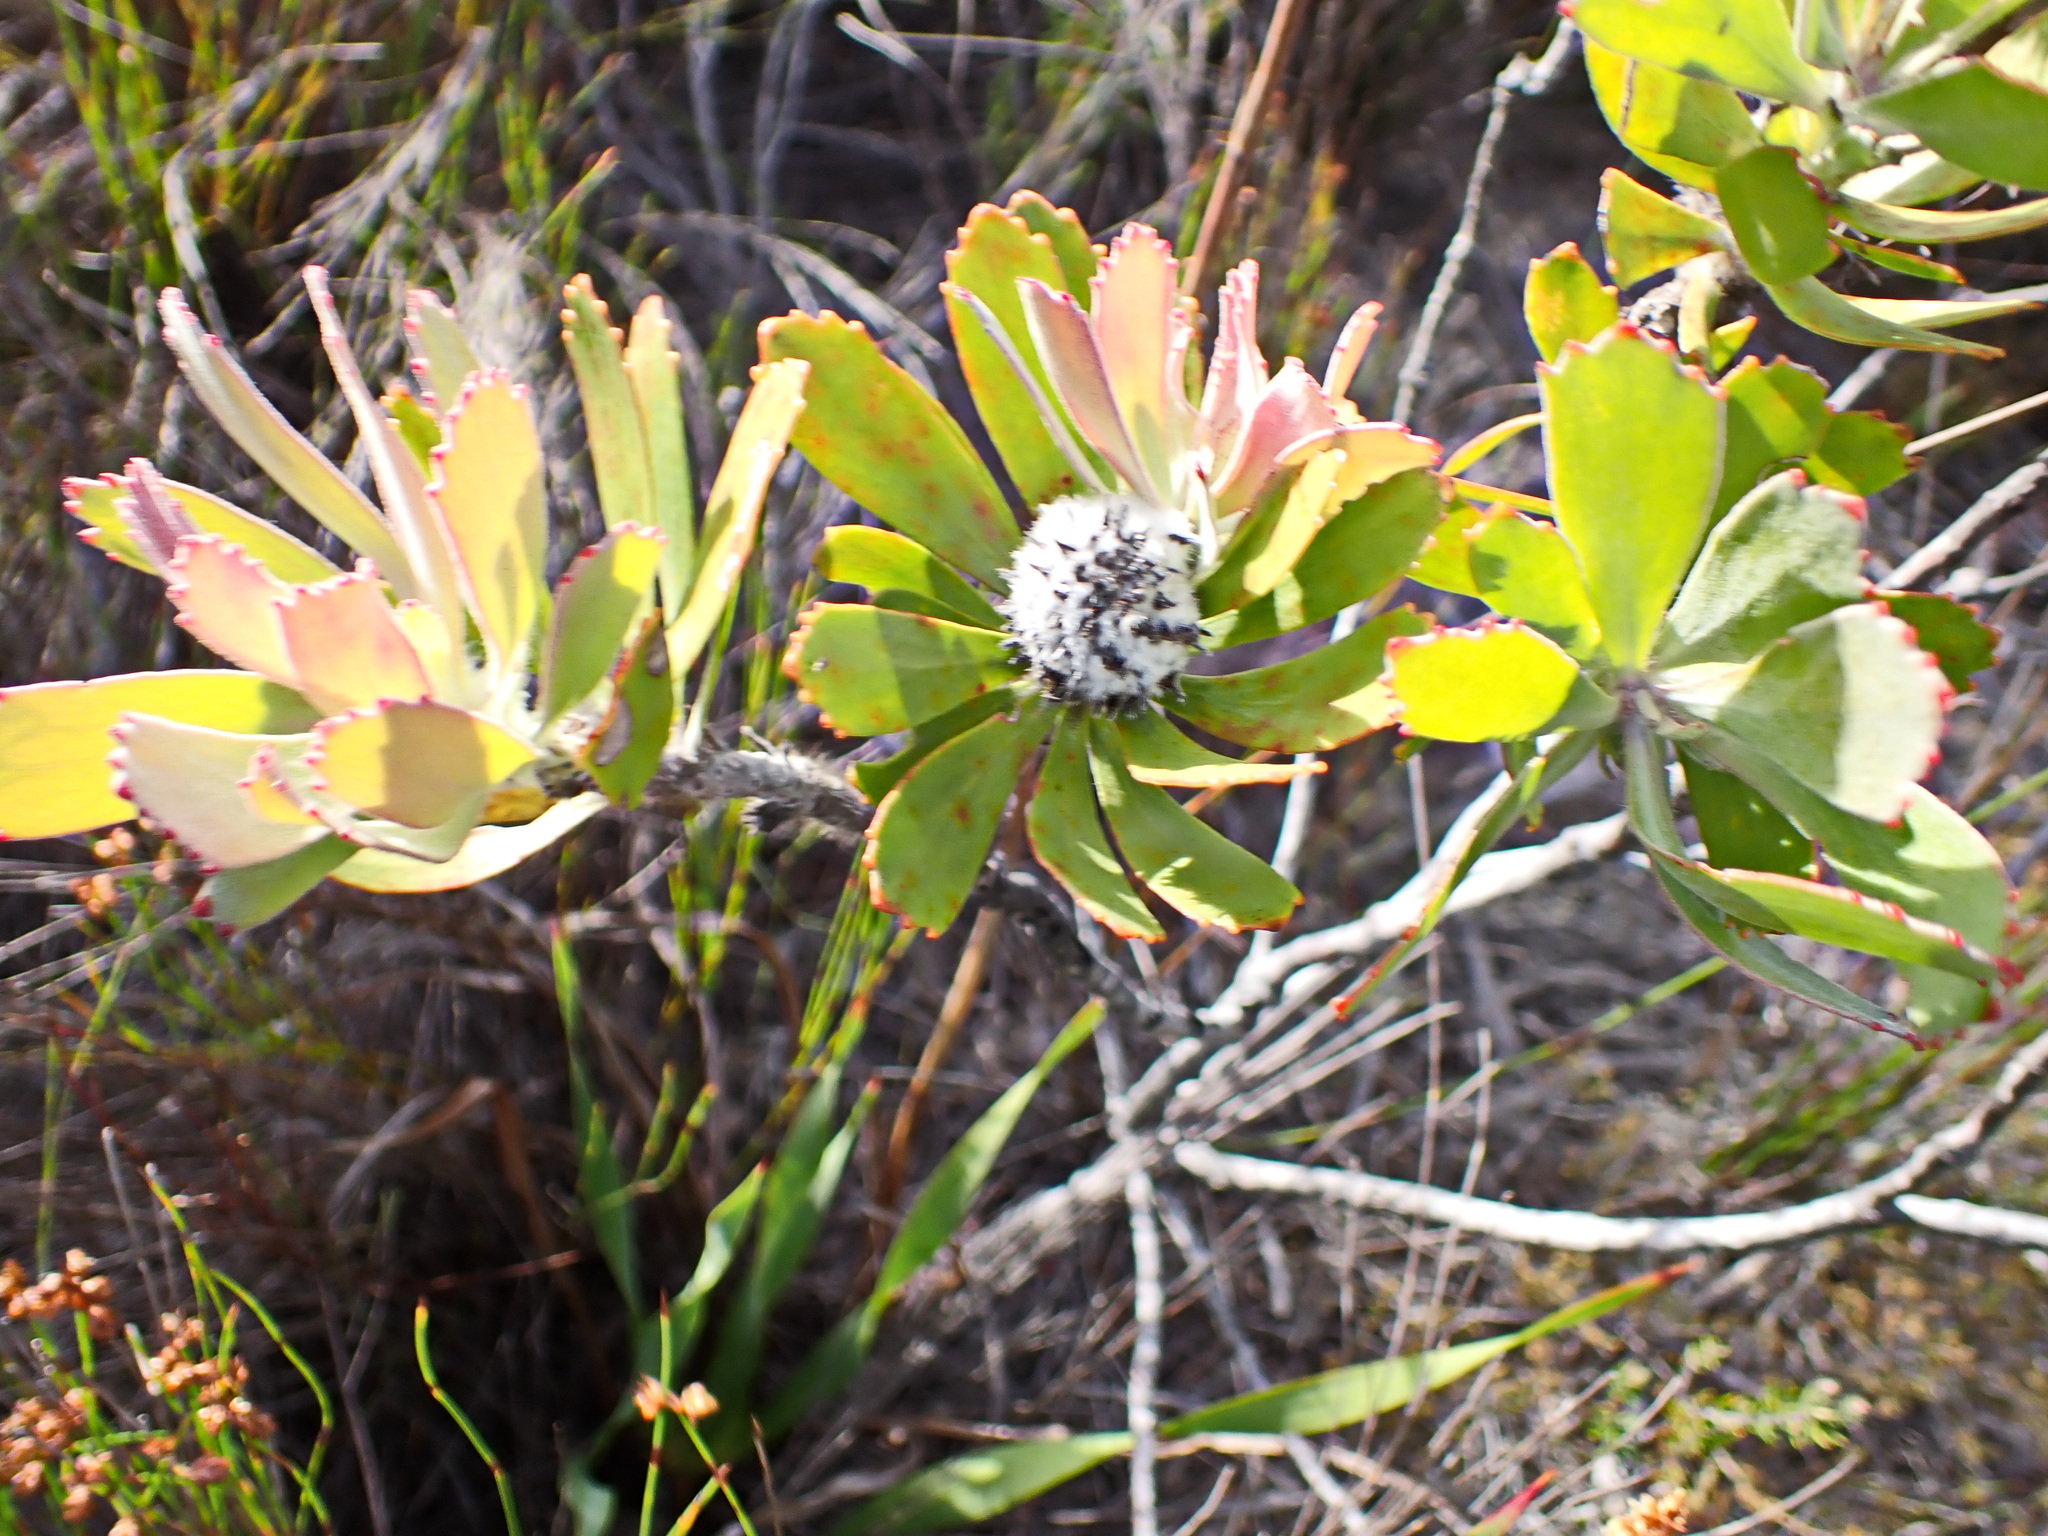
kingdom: Plantae
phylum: Tracheophyta
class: Magnoliopsida
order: Proteales
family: Proteaceae
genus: Leucospermum
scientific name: Leucospermum praecox
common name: Mossel bay pincushion
